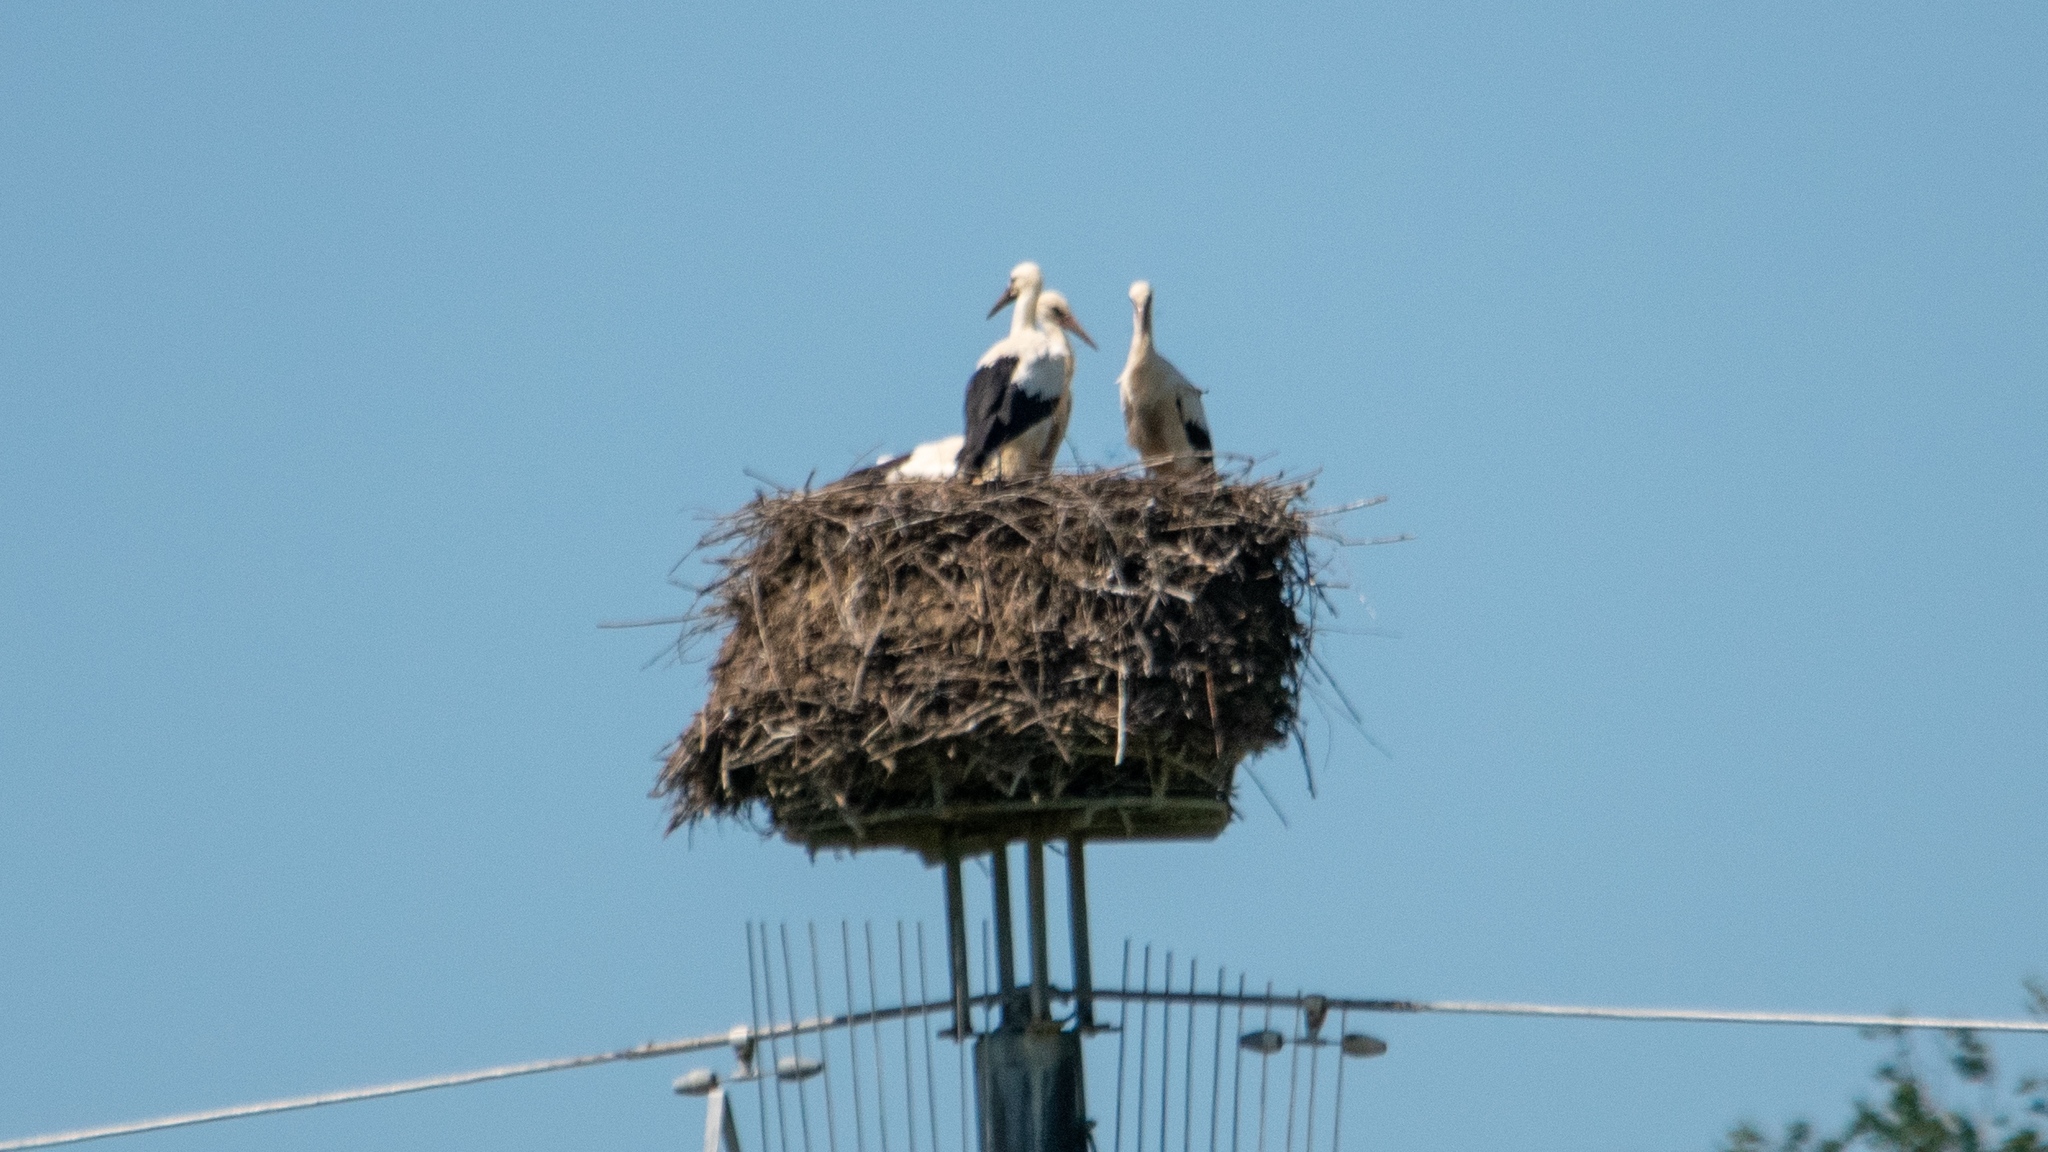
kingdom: Animalia
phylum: Chordata
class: Aves
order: Ciconiiformes
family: Ciconiidae
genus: Ciconia
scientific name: Ciconia ciconia
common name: White stork
